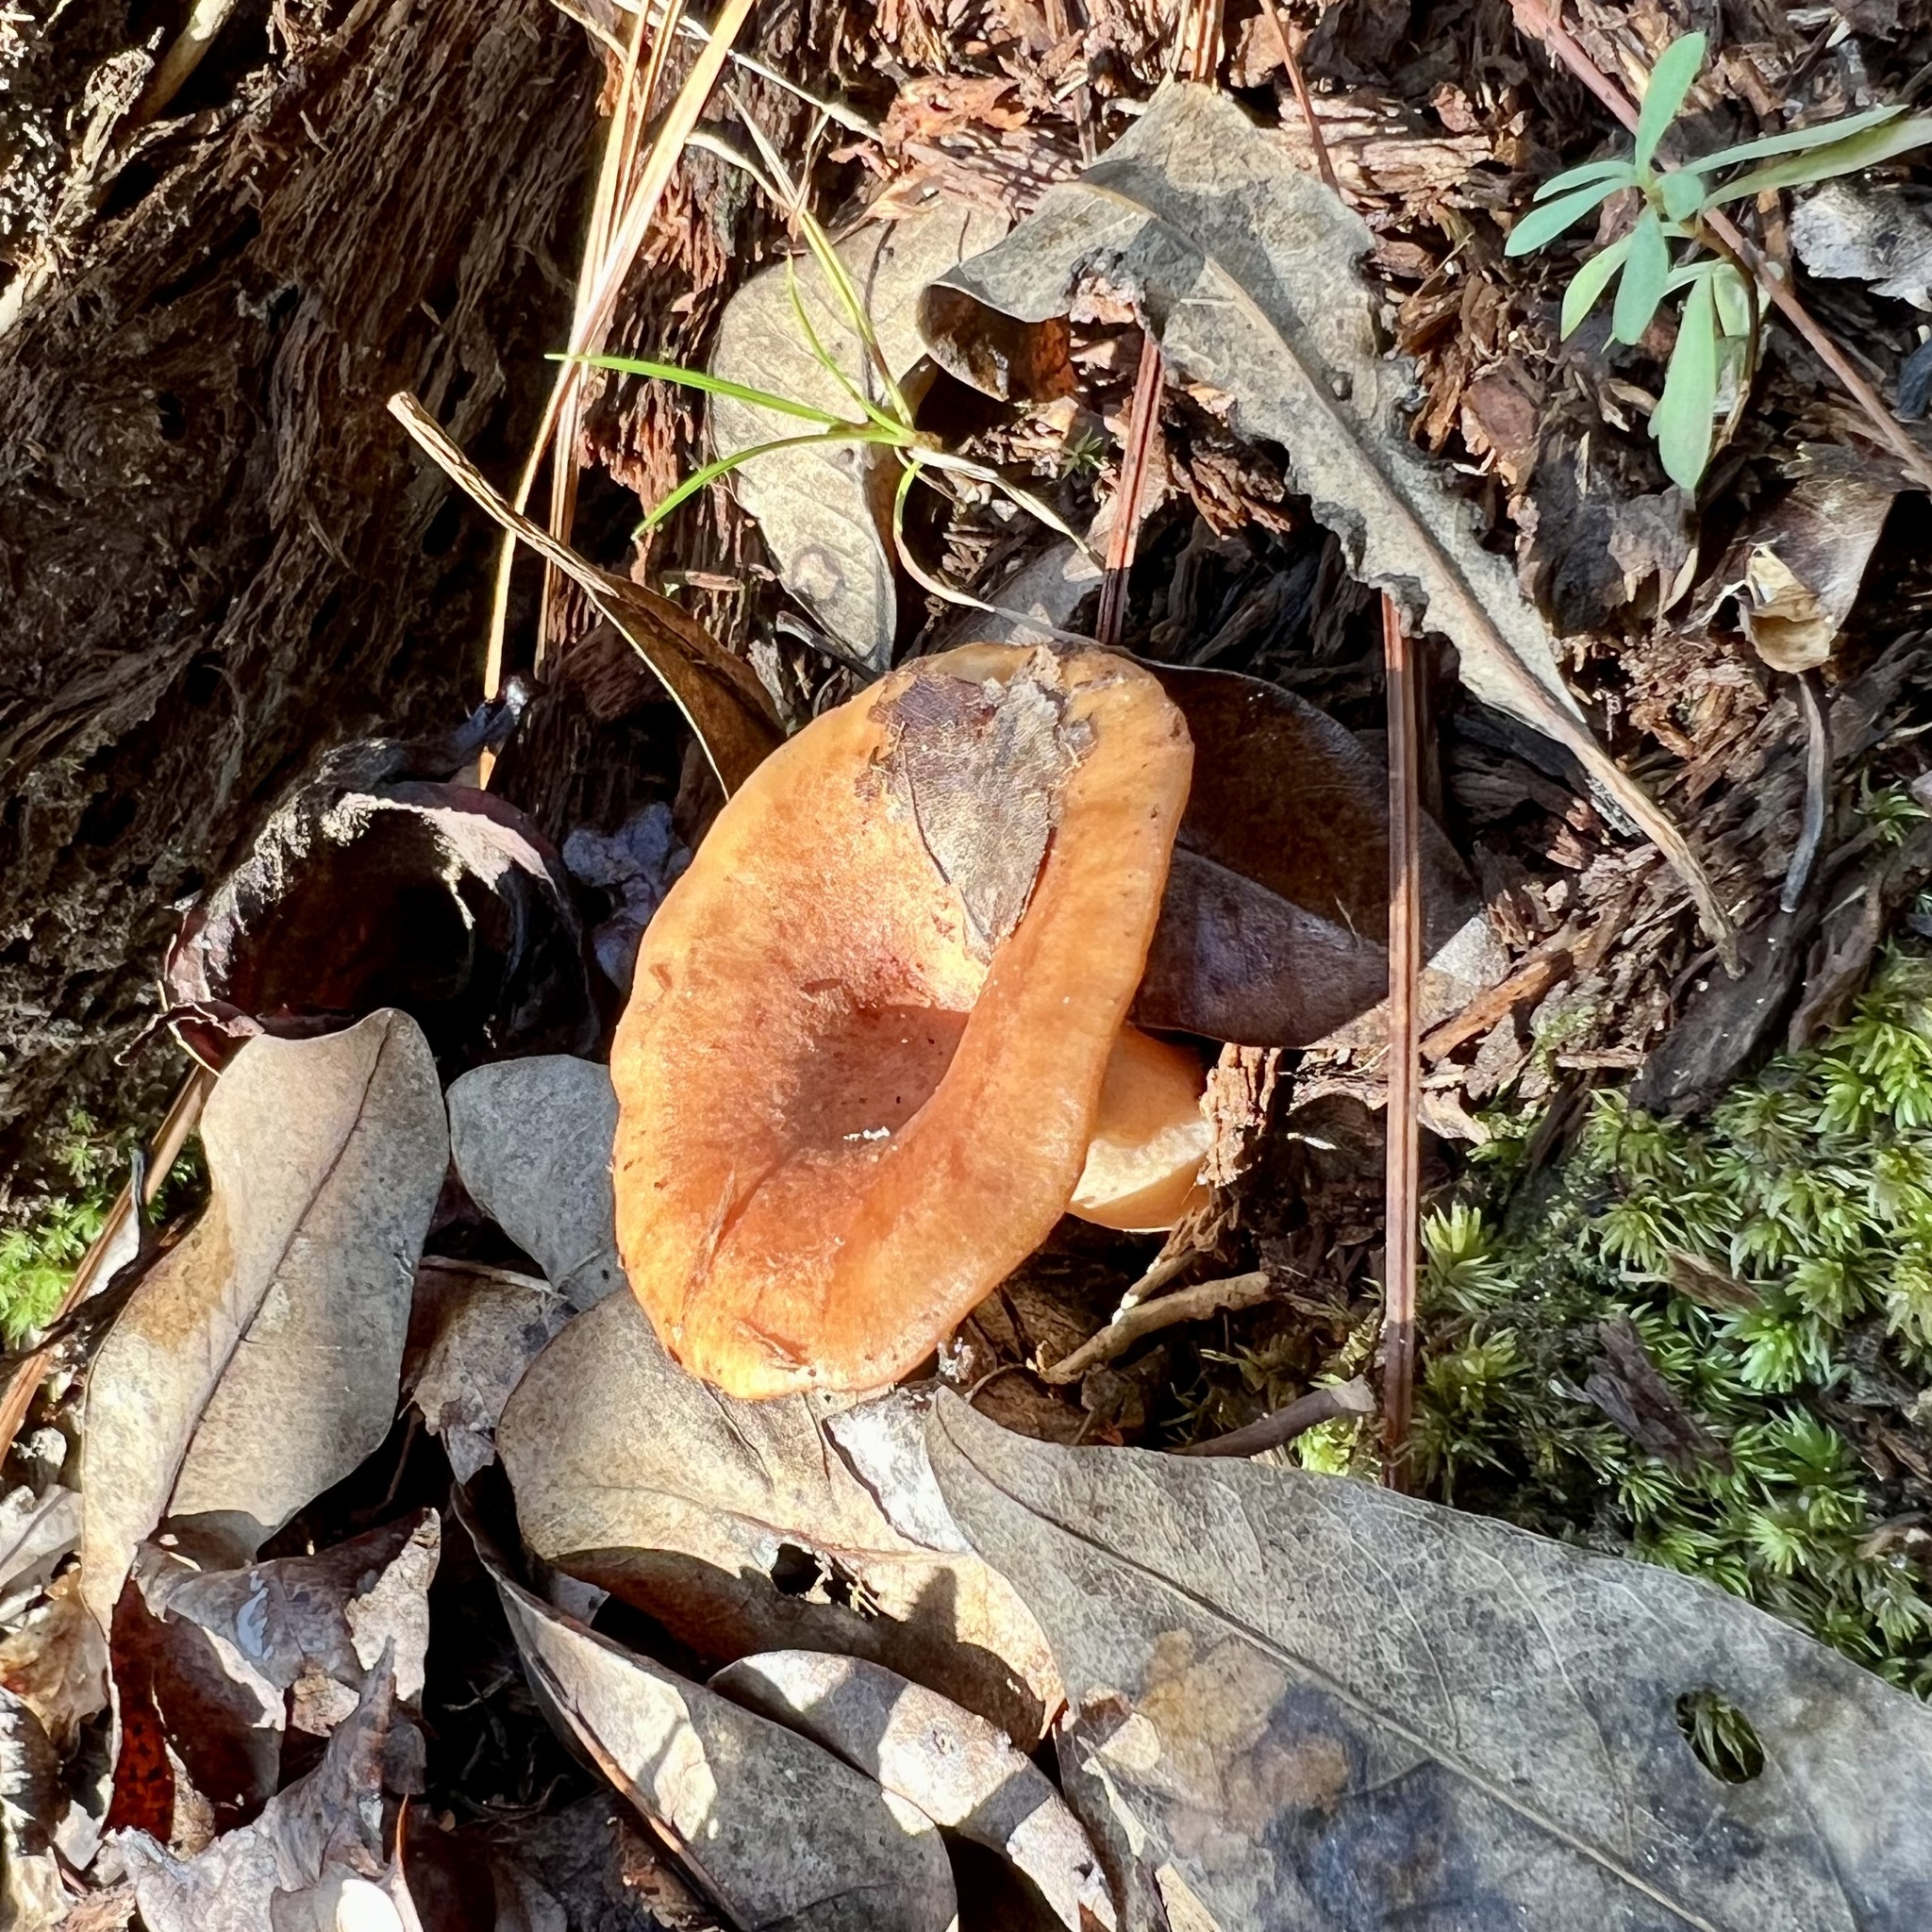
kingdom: Fungi
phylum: Basidiomycota
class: Agaricomycetes
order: Russulales
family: Russulaceae
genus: Lactarius
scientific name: Lactarius hygrophoroides
